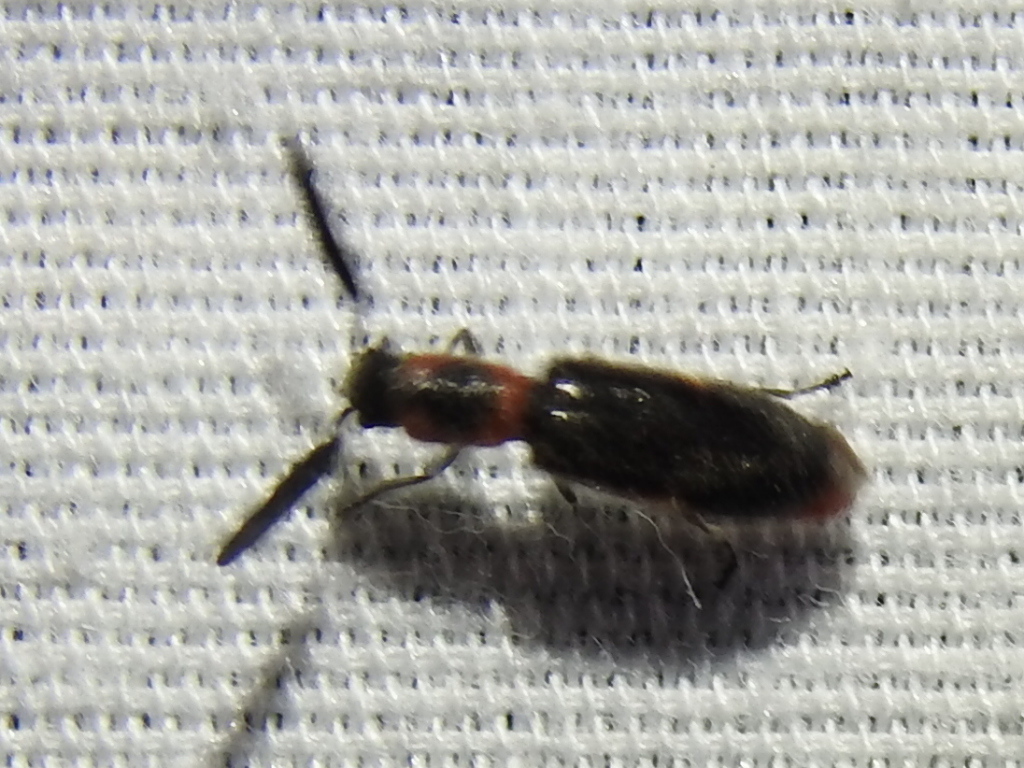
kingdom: Animalia
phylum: Arthropoda
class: Insecta
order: Coleoptera
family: Cleridae
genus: Monophylla
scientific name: Monophylla terminata
